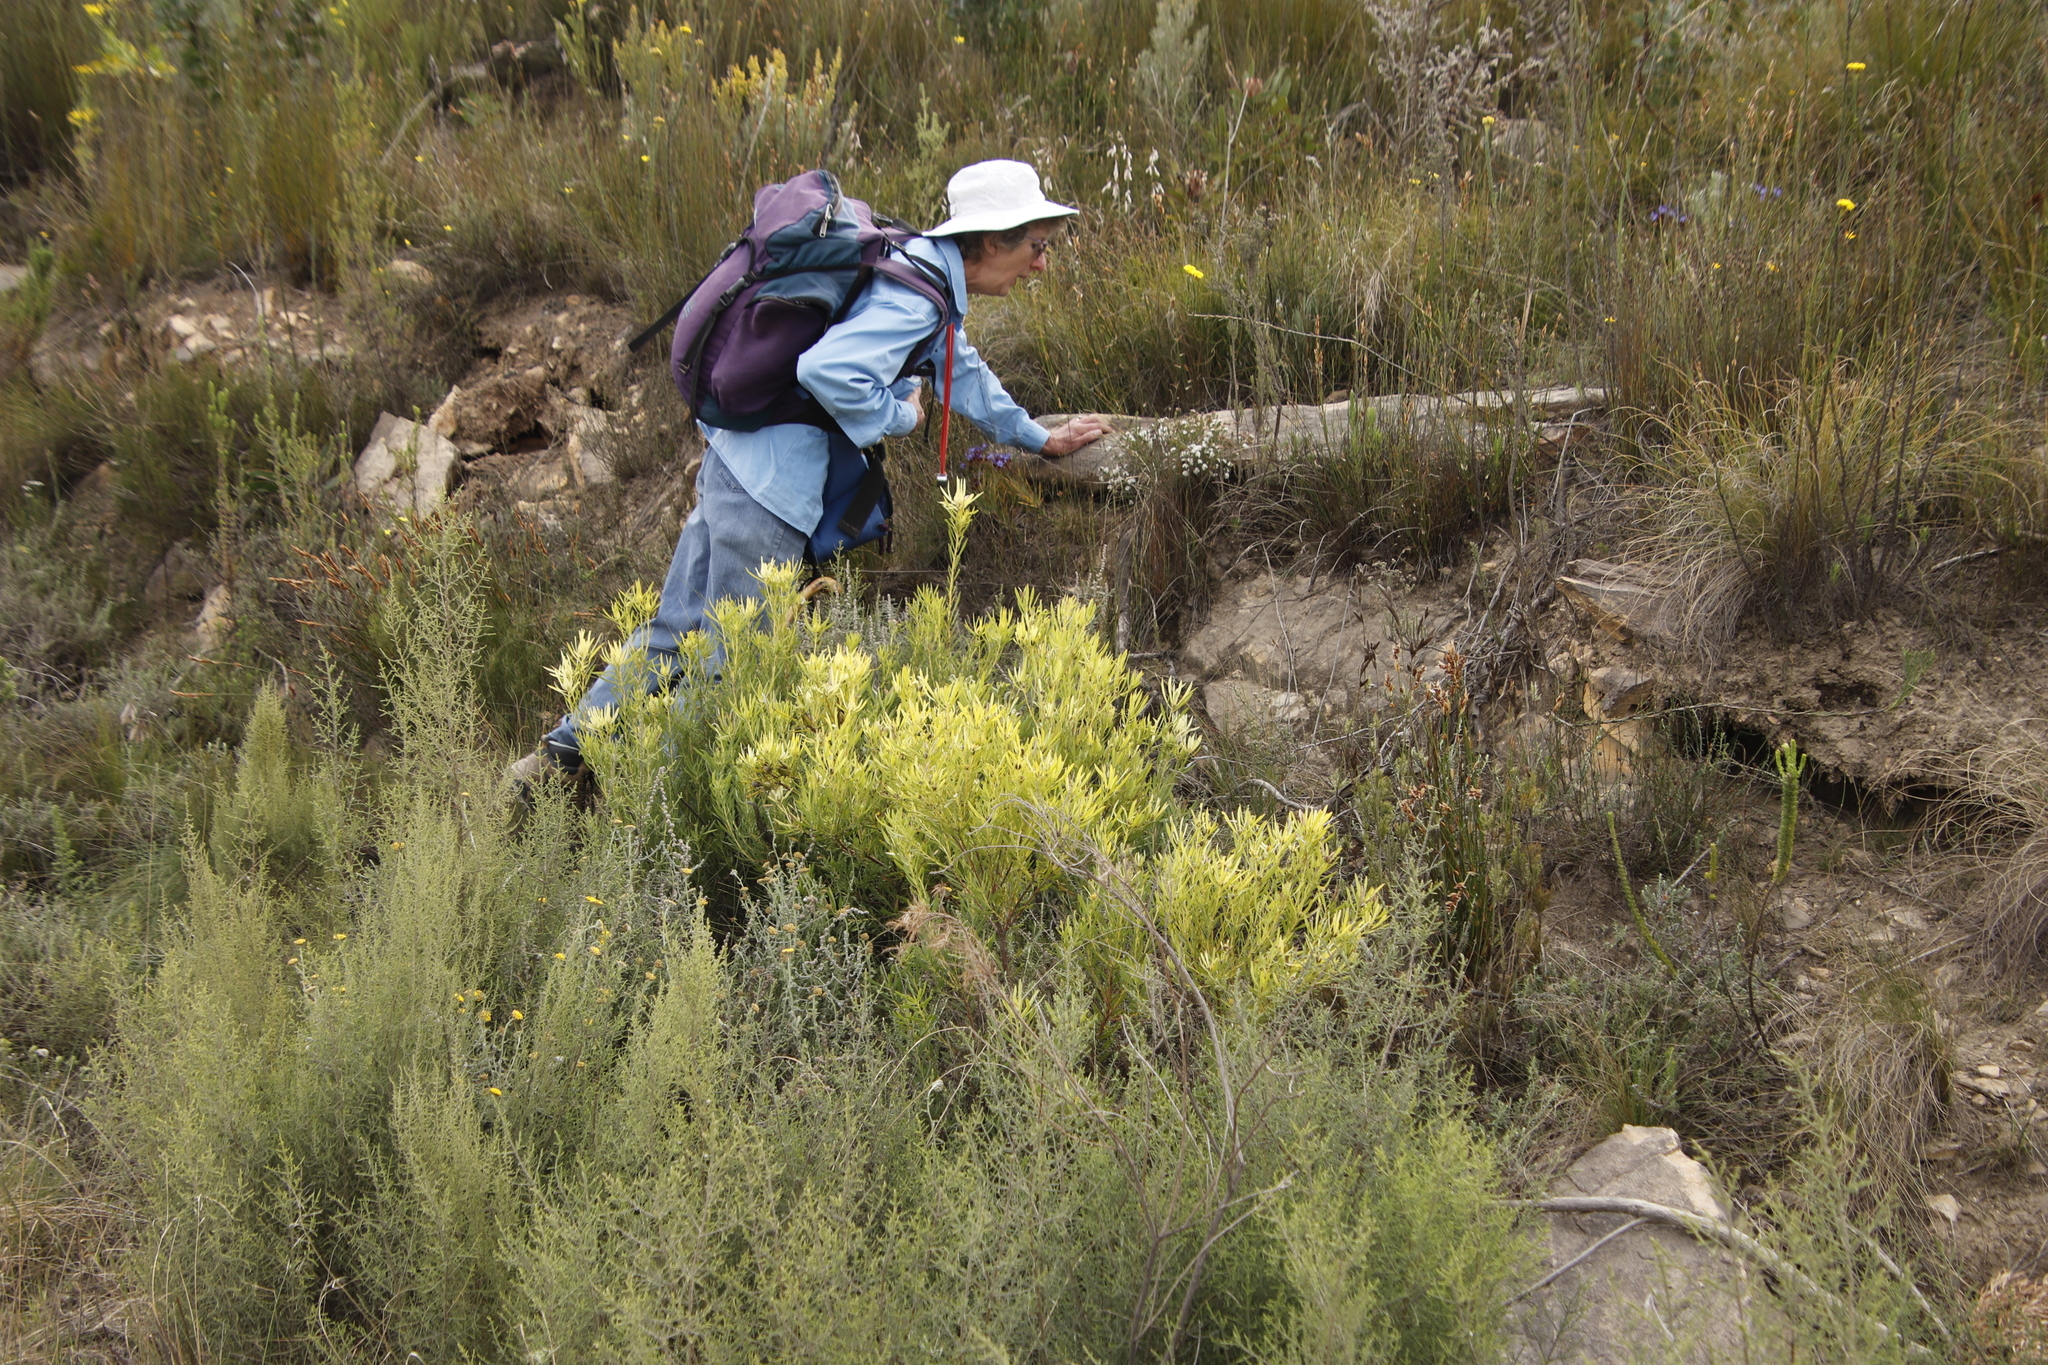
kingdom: Plantae
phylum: Tracheophyta
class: Magnoliopsida
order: Proteales
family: Proteaceae
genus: Leucadendron
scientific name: Leucadendron salignum
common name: Common sunshine conebush
